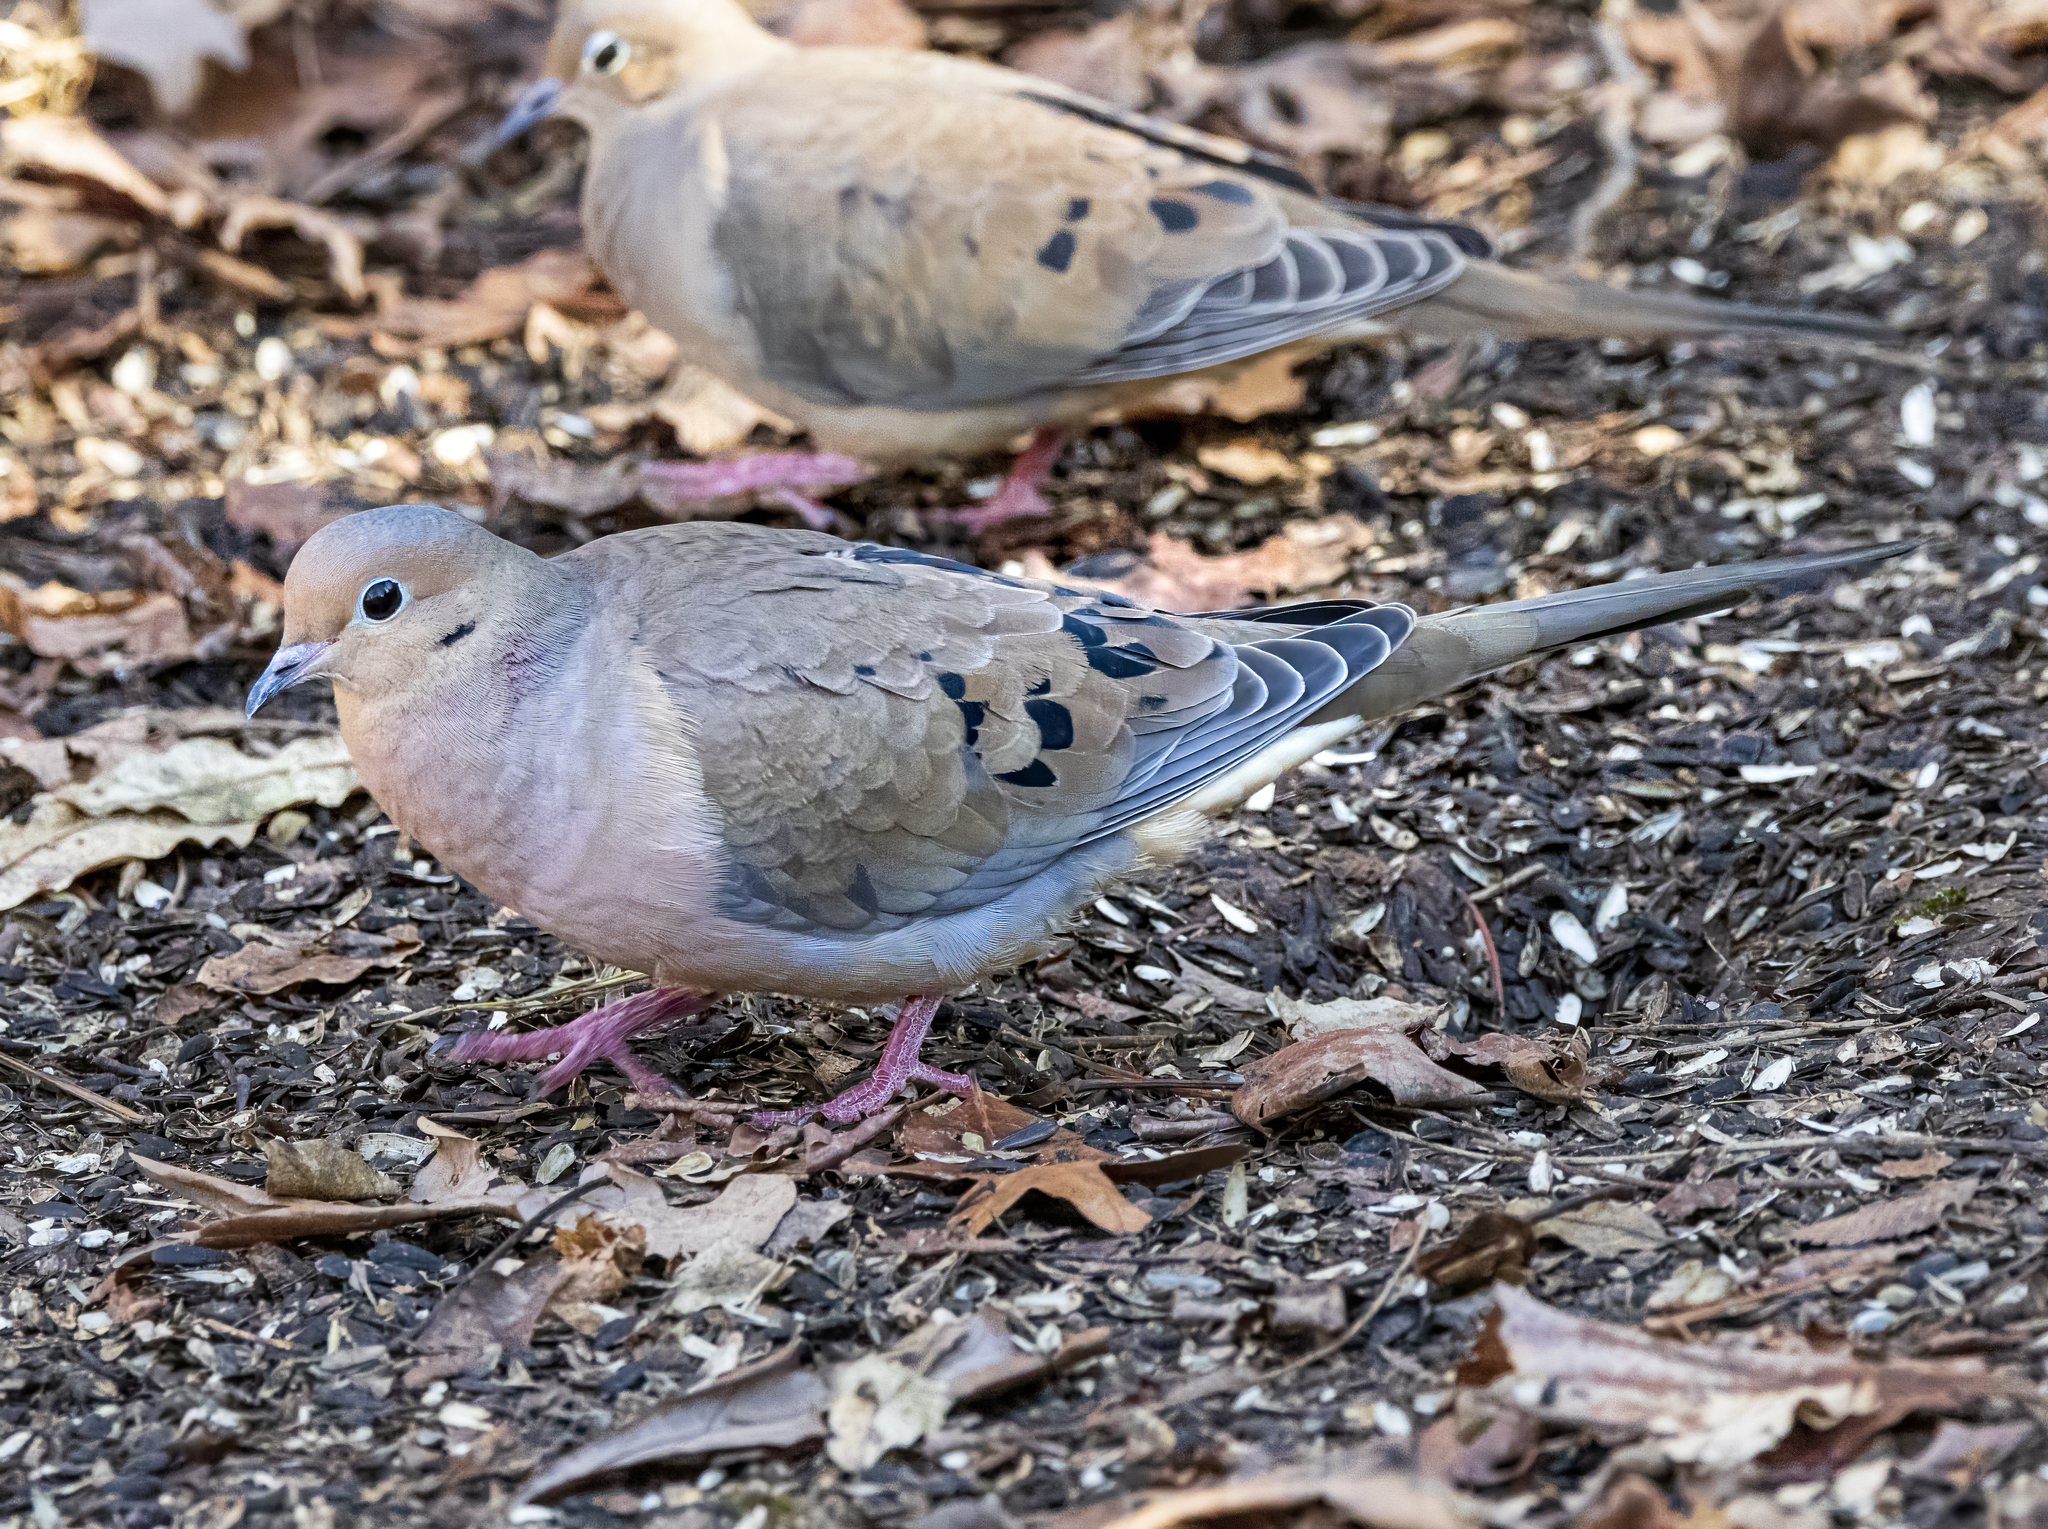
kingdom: Animalia
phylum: Chordata
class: Aves
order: Columbiformes
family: Columbidae
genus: Zenaida
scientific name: Zenaida macroura
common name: Mourning dove
